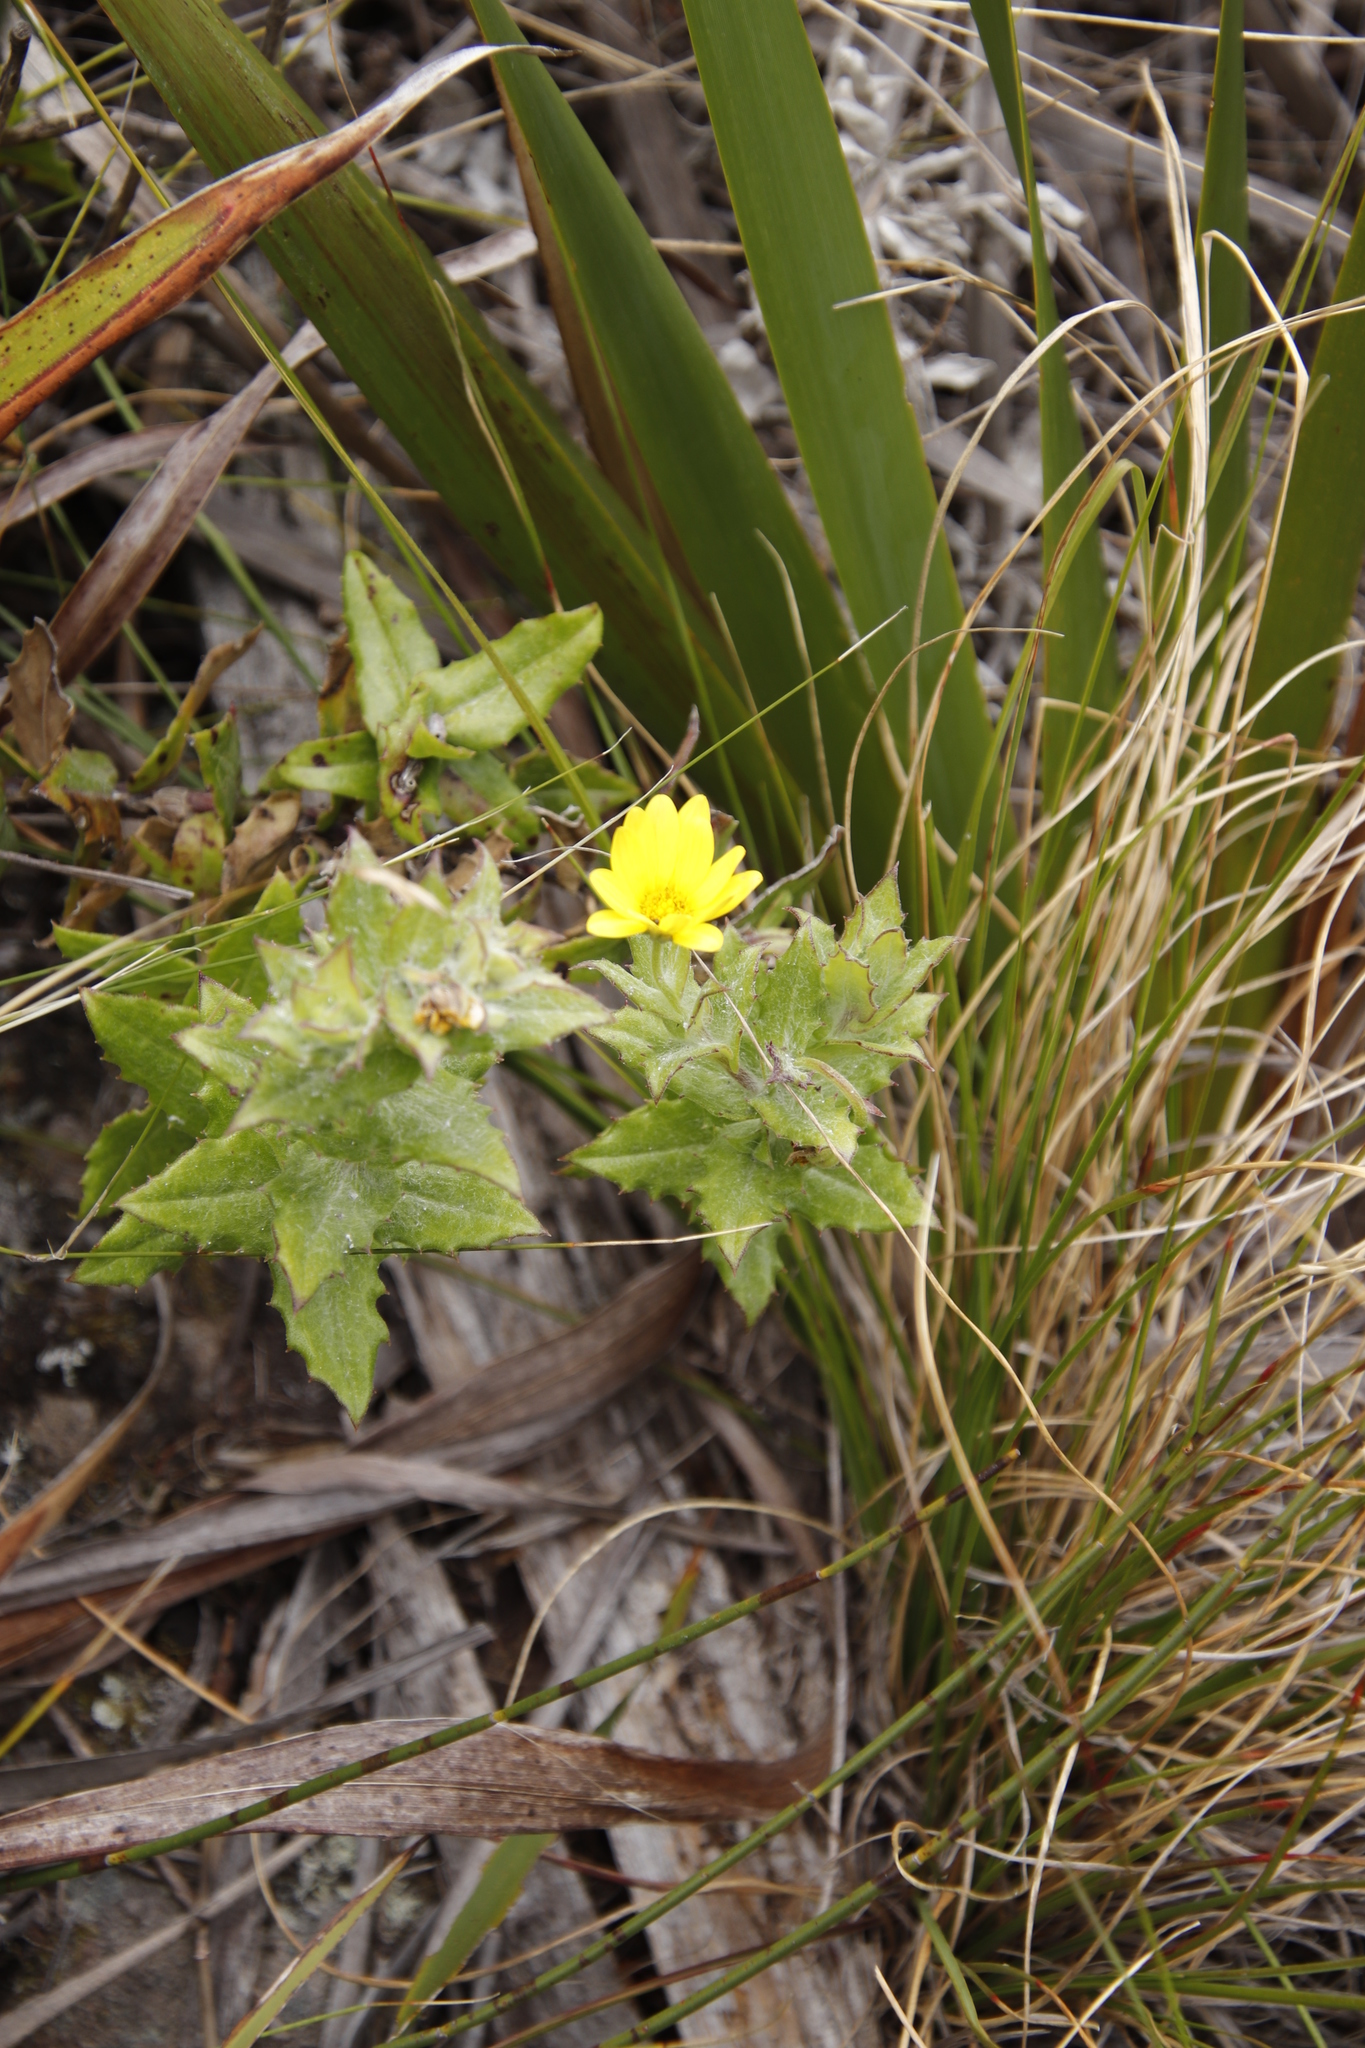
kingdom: Plantae
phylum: Tracheophyta
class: Magnoliopsida
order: Asterales
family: Asteraceae
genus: Osteospermum
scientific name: Osteospermum ilicifolium
